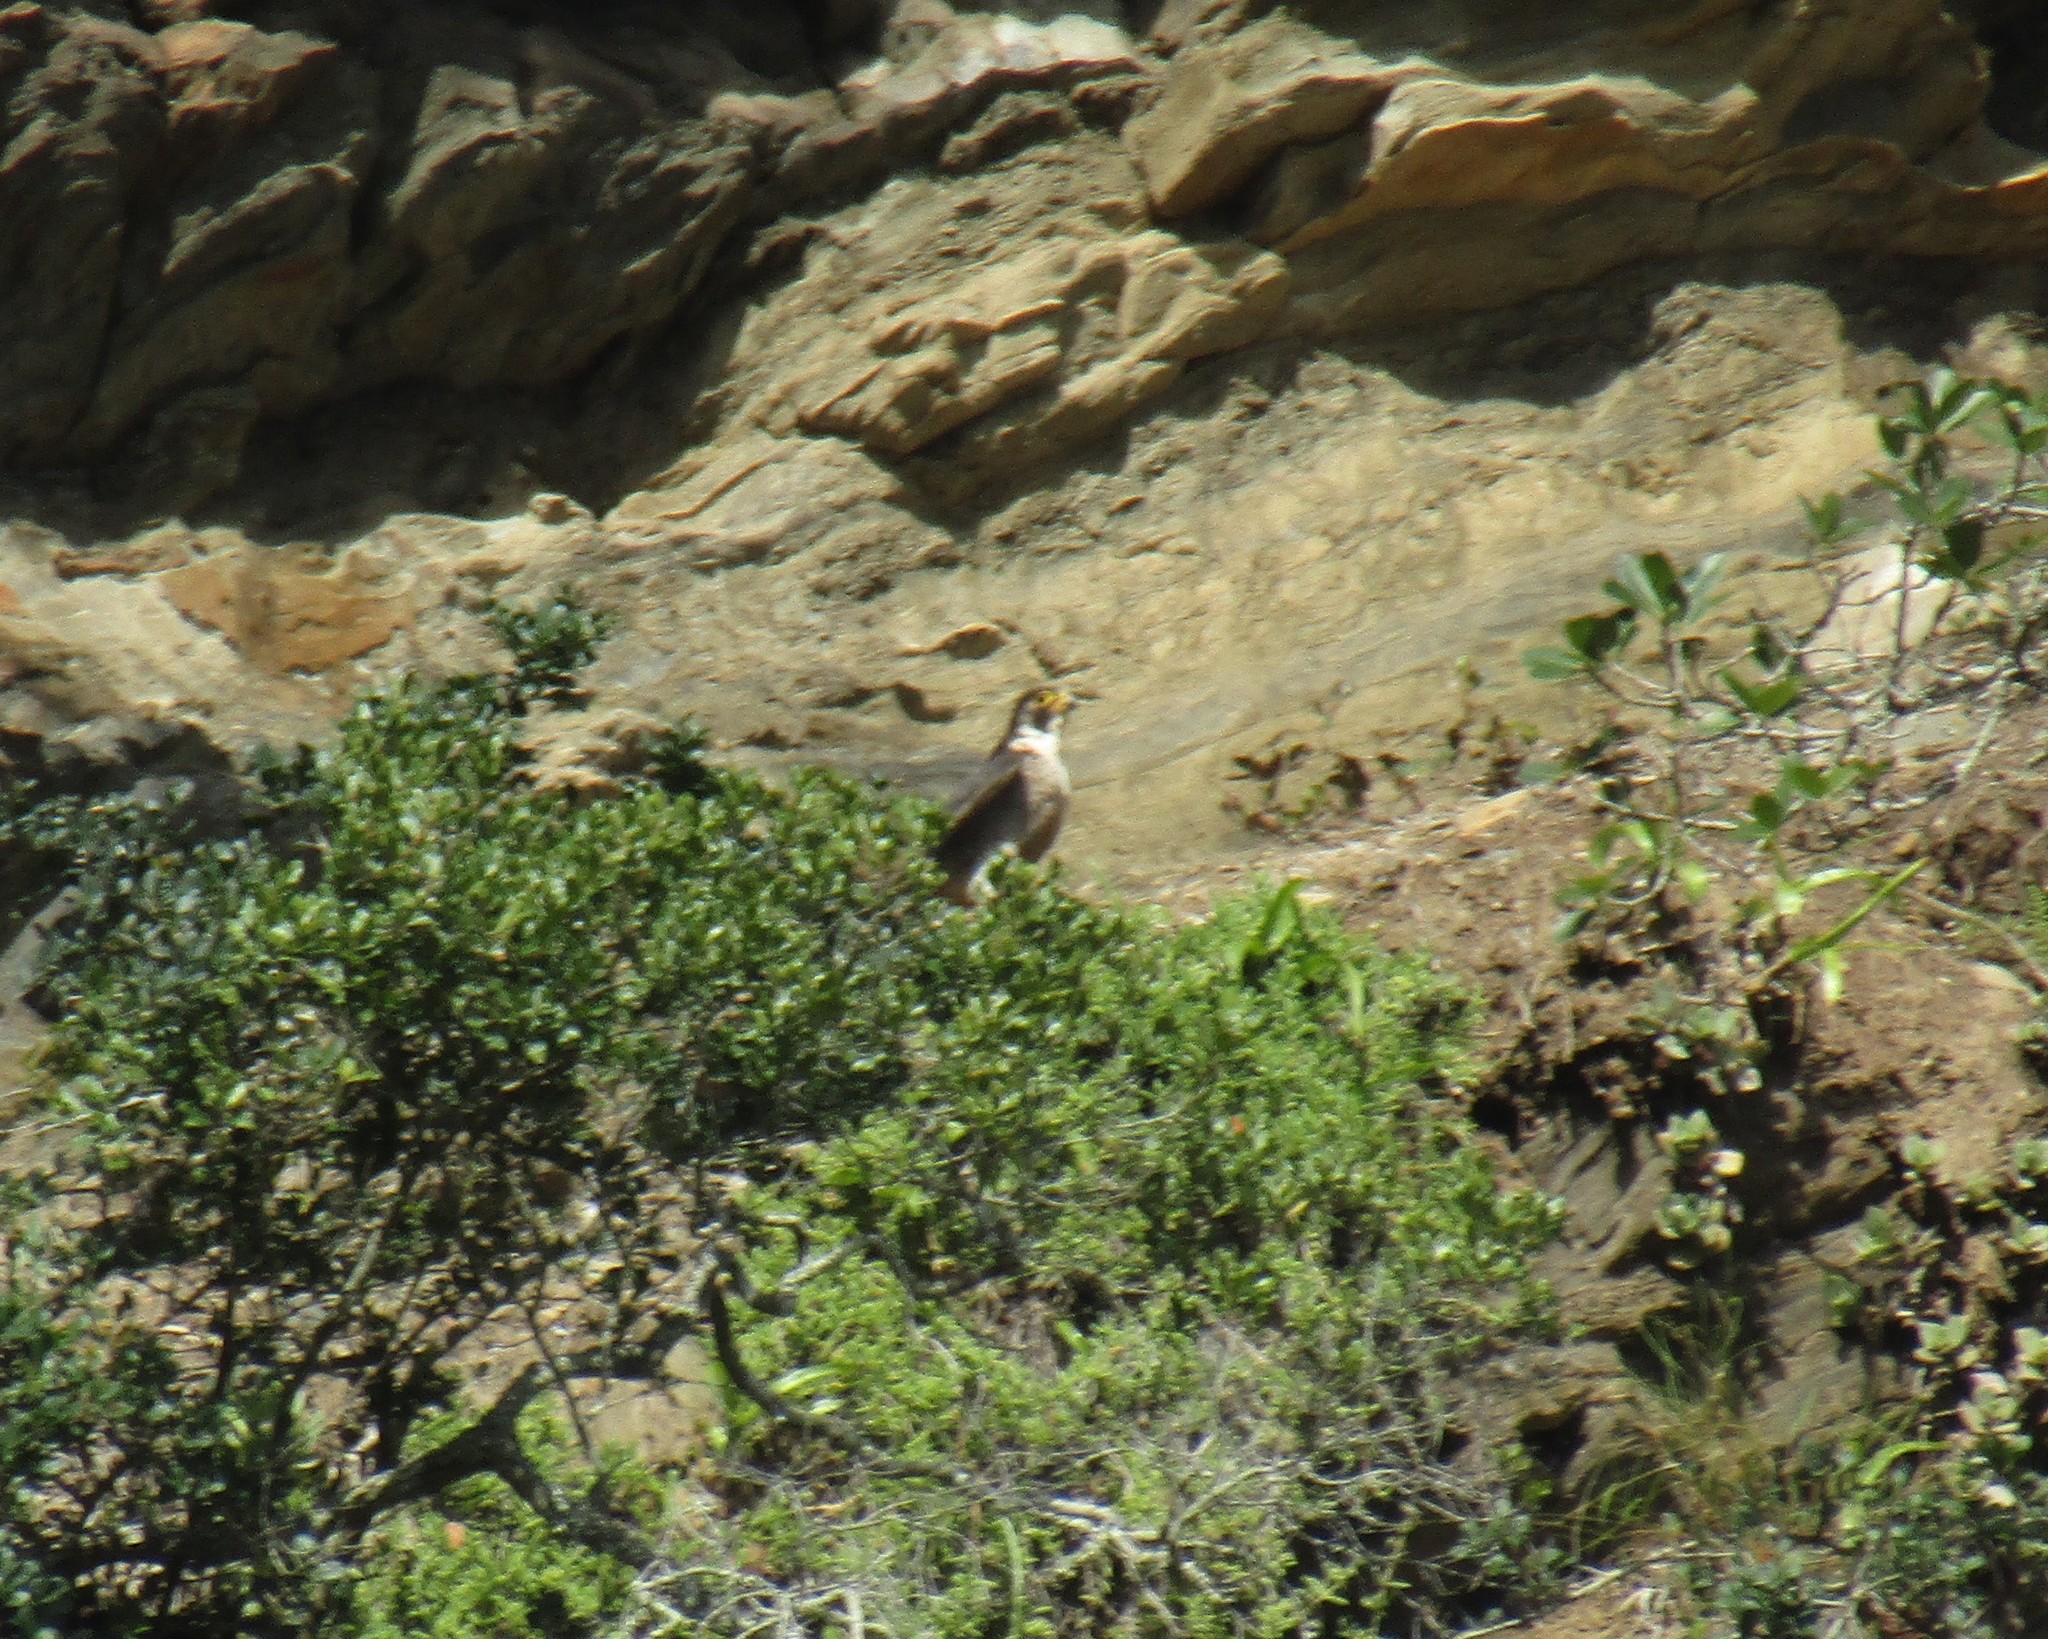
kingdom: Animalia
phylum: Chordata
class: Aves
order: Falconiformes
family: Falconidae
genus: Falco
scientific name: Falco peregrinus
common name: Peregrine falcon
